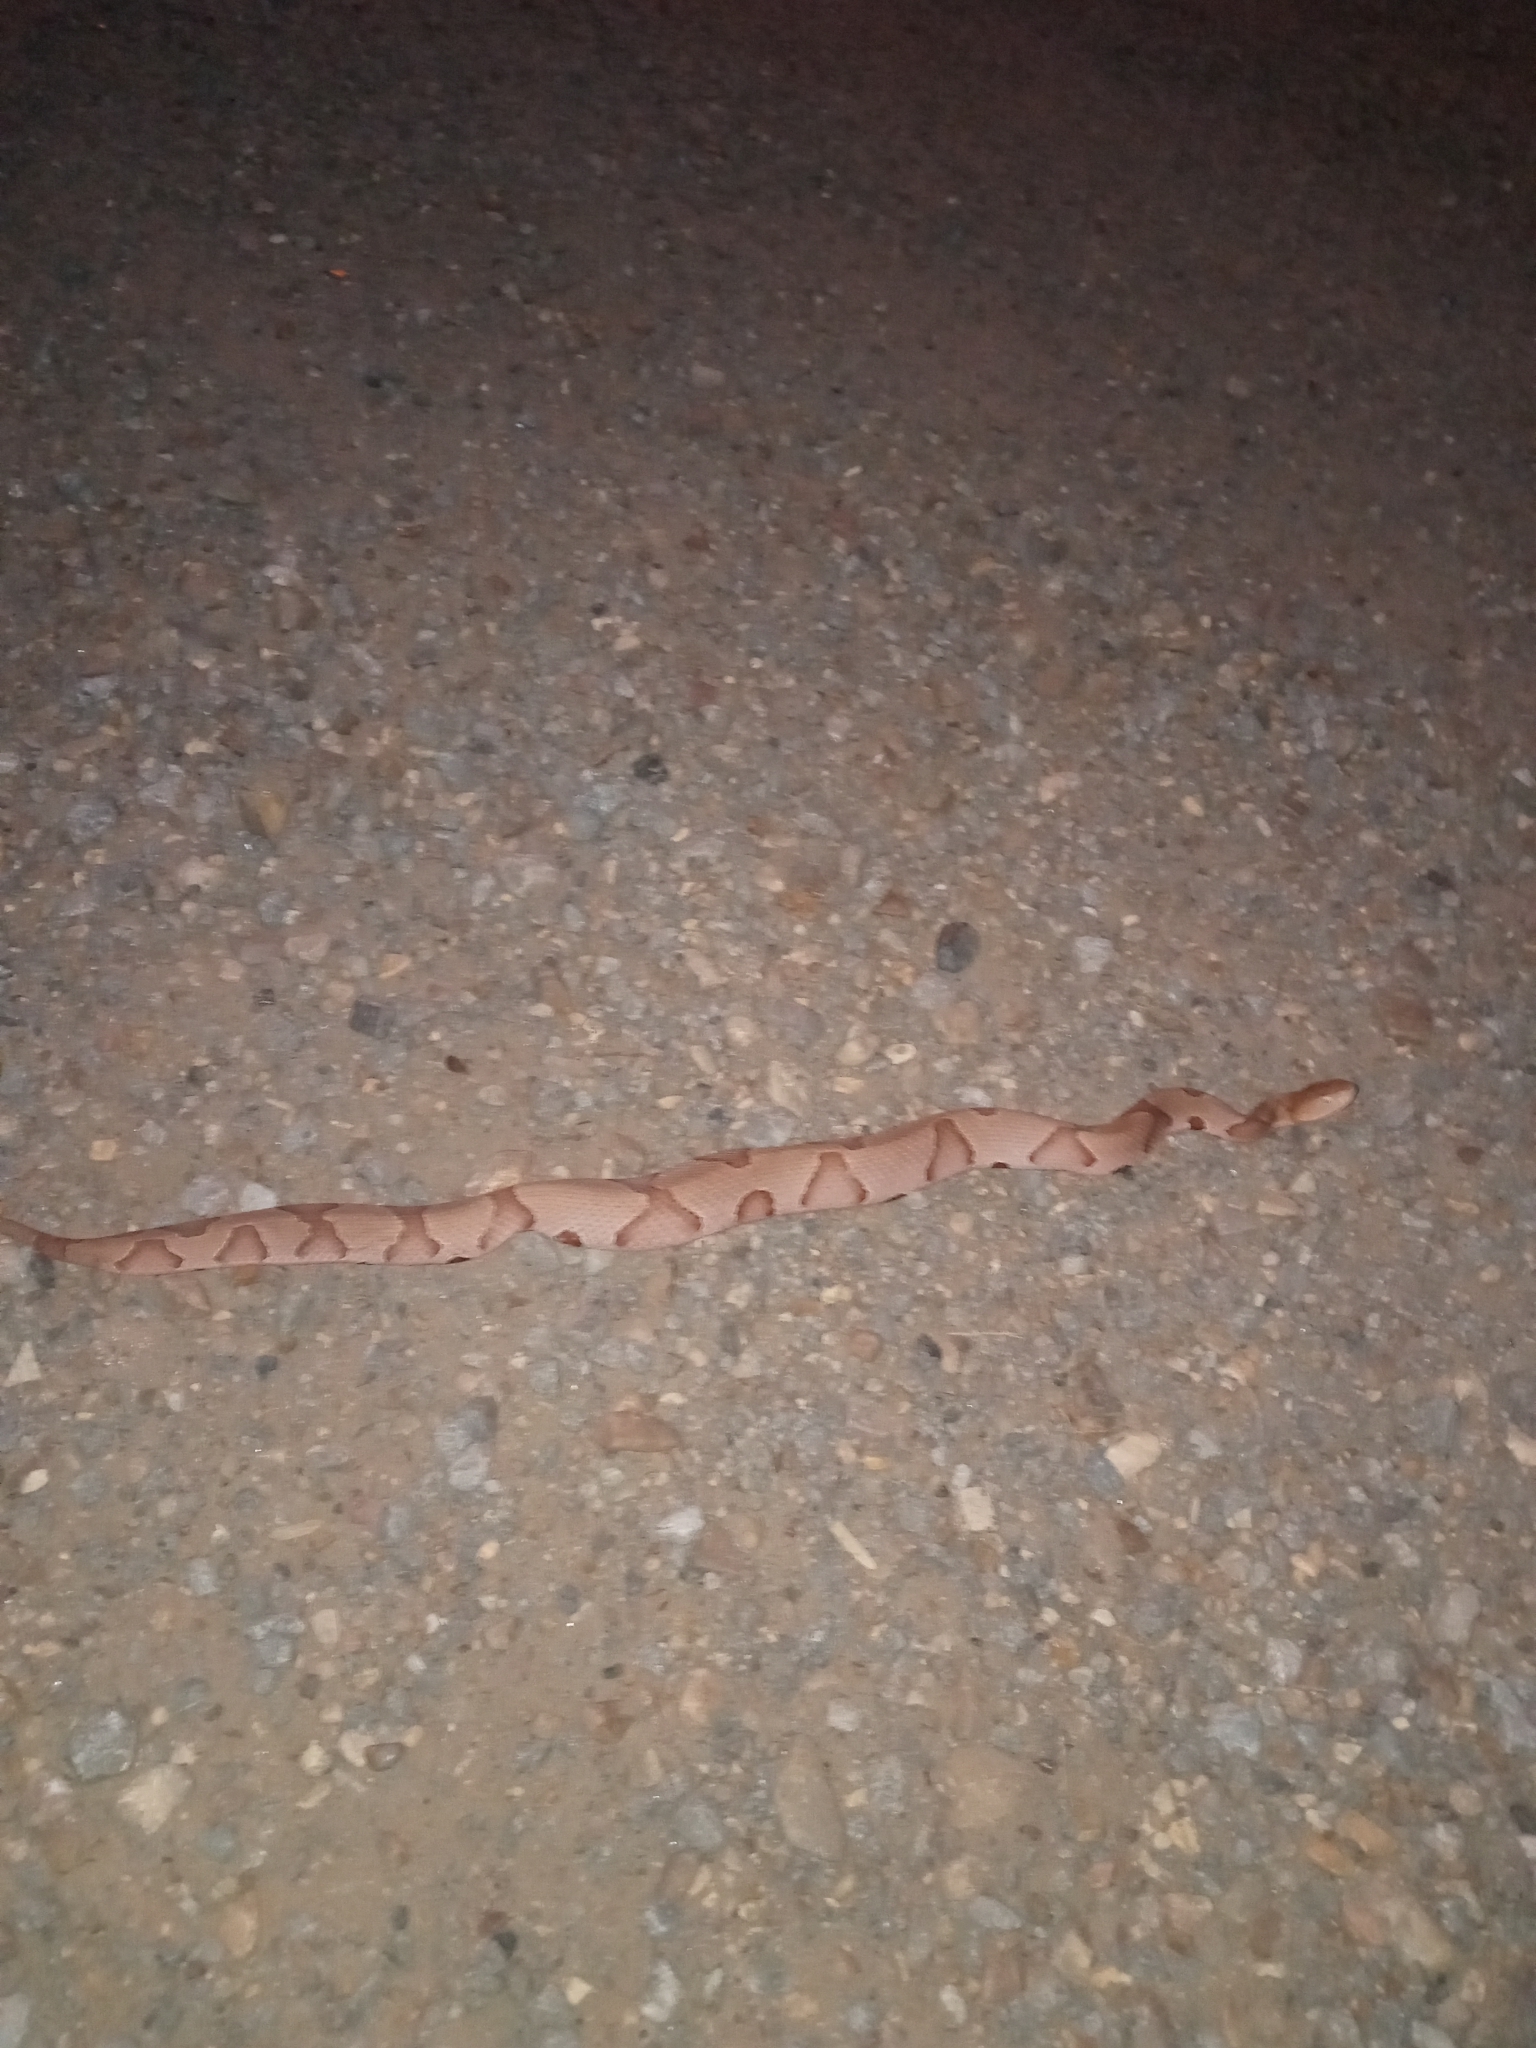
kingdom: Animalia
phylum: Chordata
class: Squamata
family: Viperidae
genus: Agkistrodon
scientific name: Agkistrodon contortrix
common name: Northern copperhead
